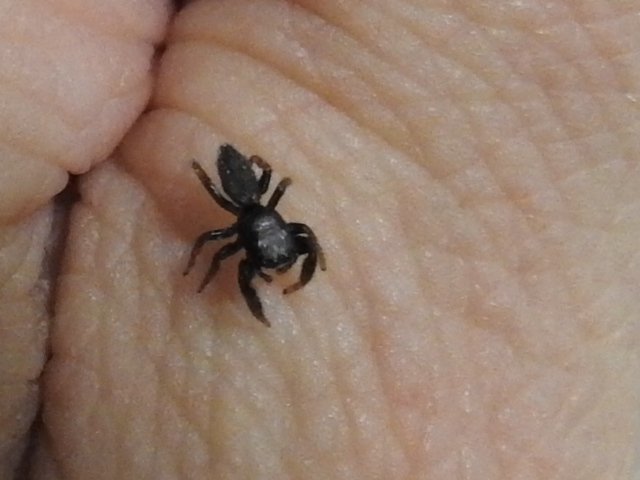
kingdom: Animalia
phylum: Arthropoda
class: Arachnida
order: Araneae
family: Salticidae
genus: Metacyrba
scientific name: Metacyrba taeniola
